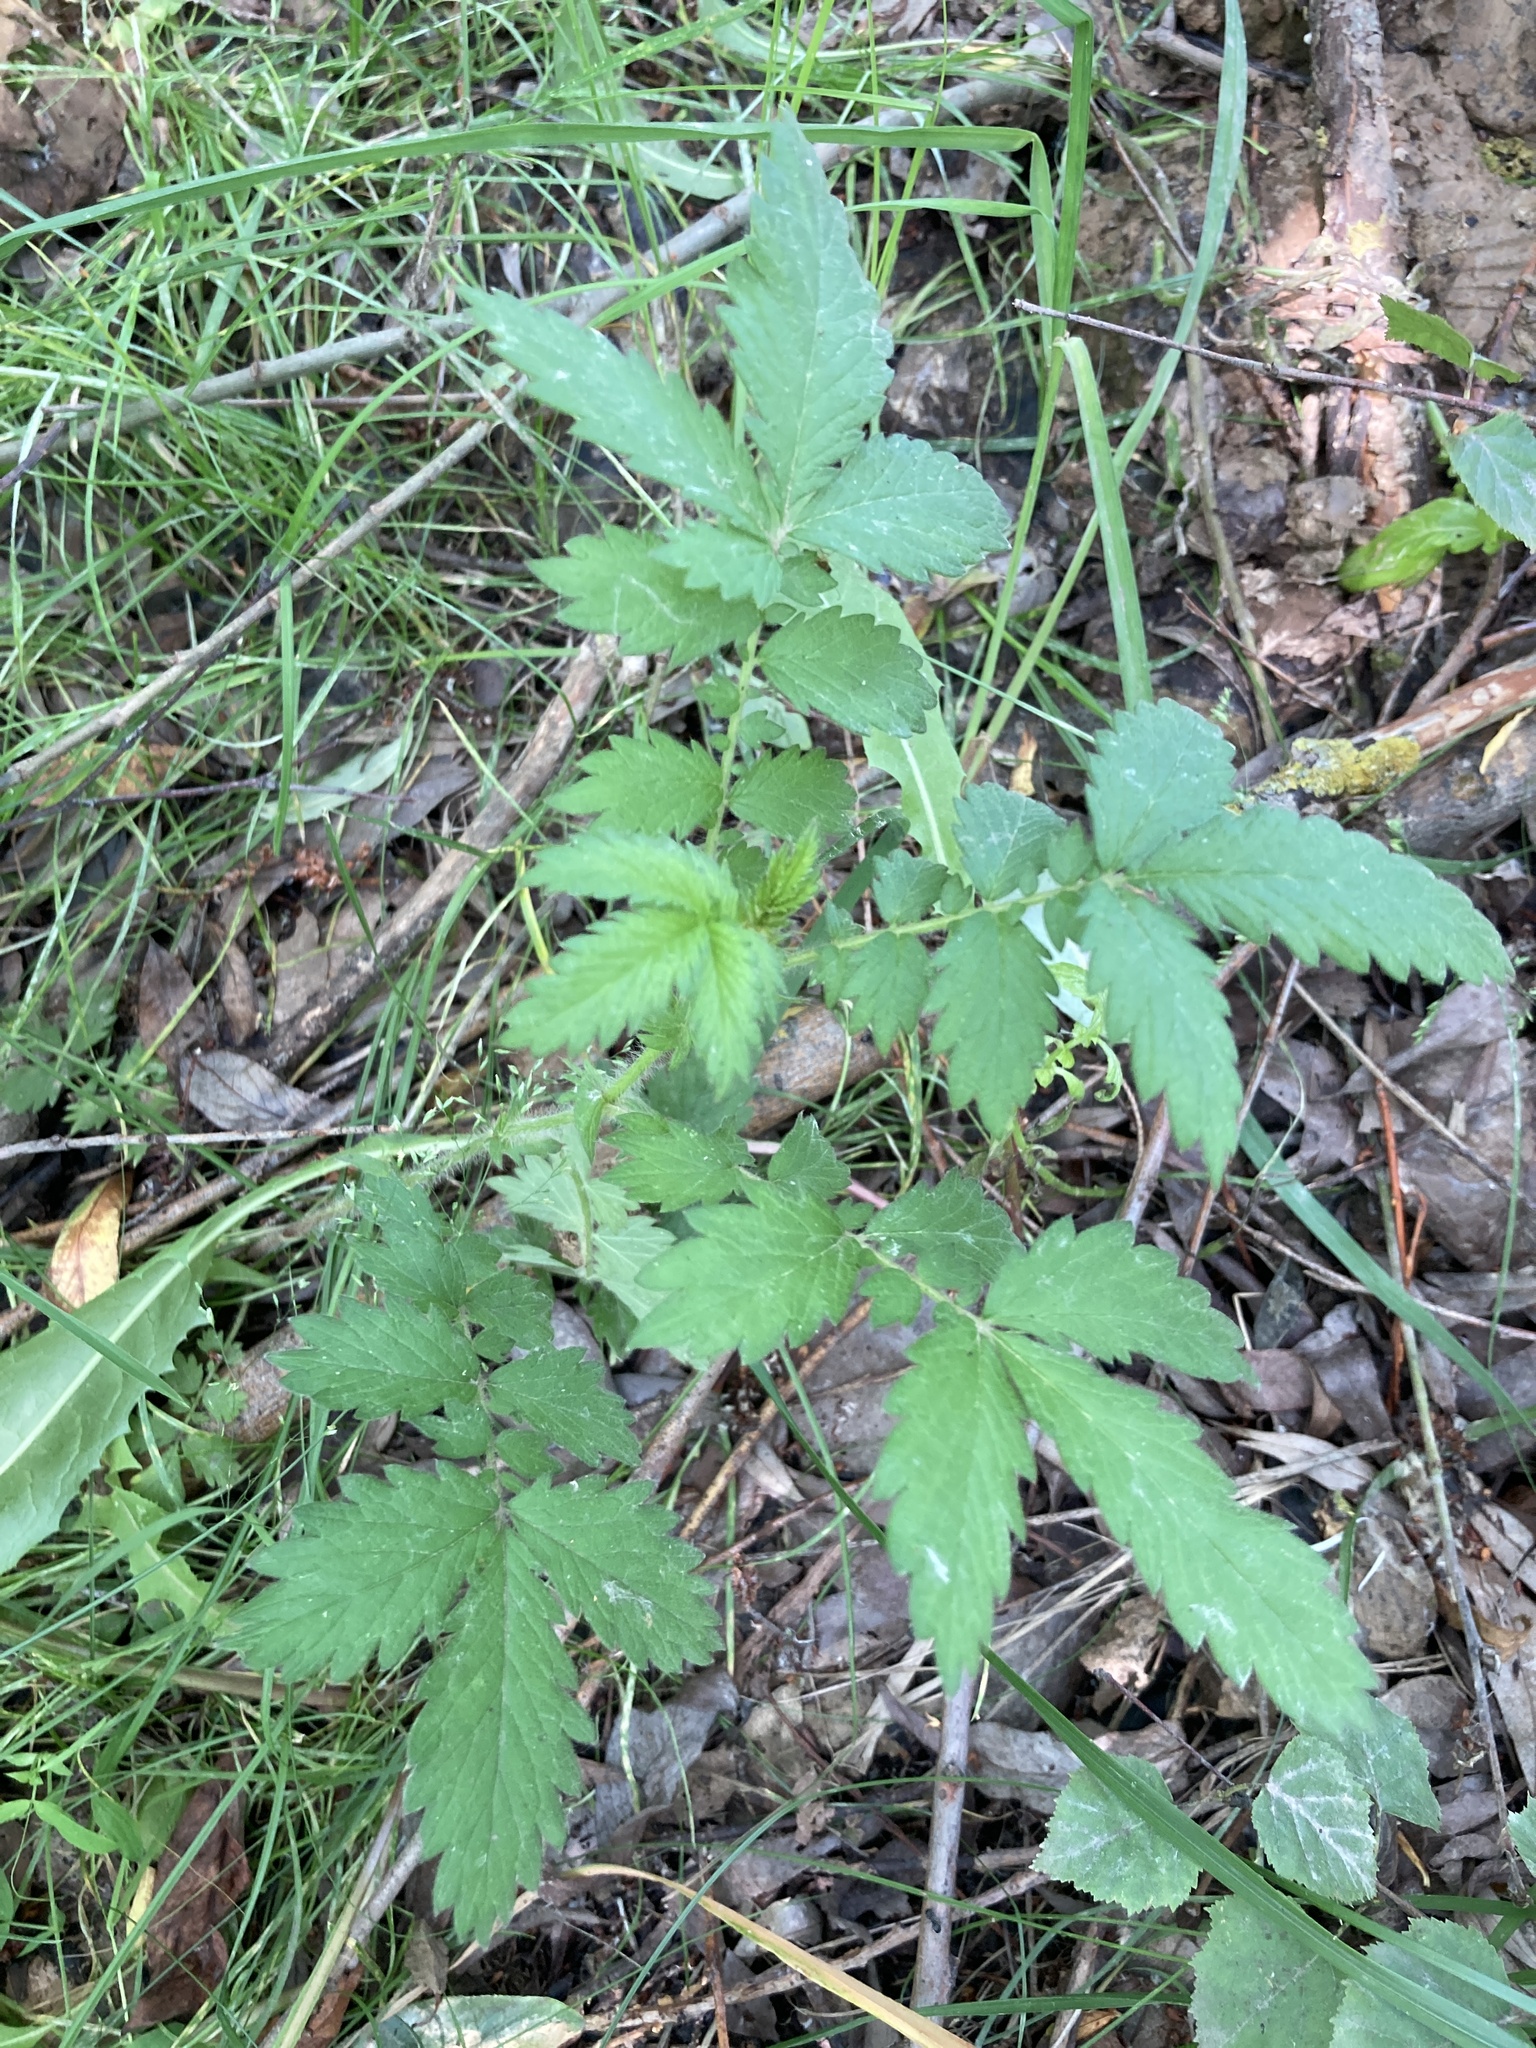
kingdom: Plantae
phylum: Tracheophyta
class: Magnoliopsida
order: Rosales
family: Rosaceae
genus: Agrimonia
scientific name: Agrimonia eupatoria
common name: Agrimony
